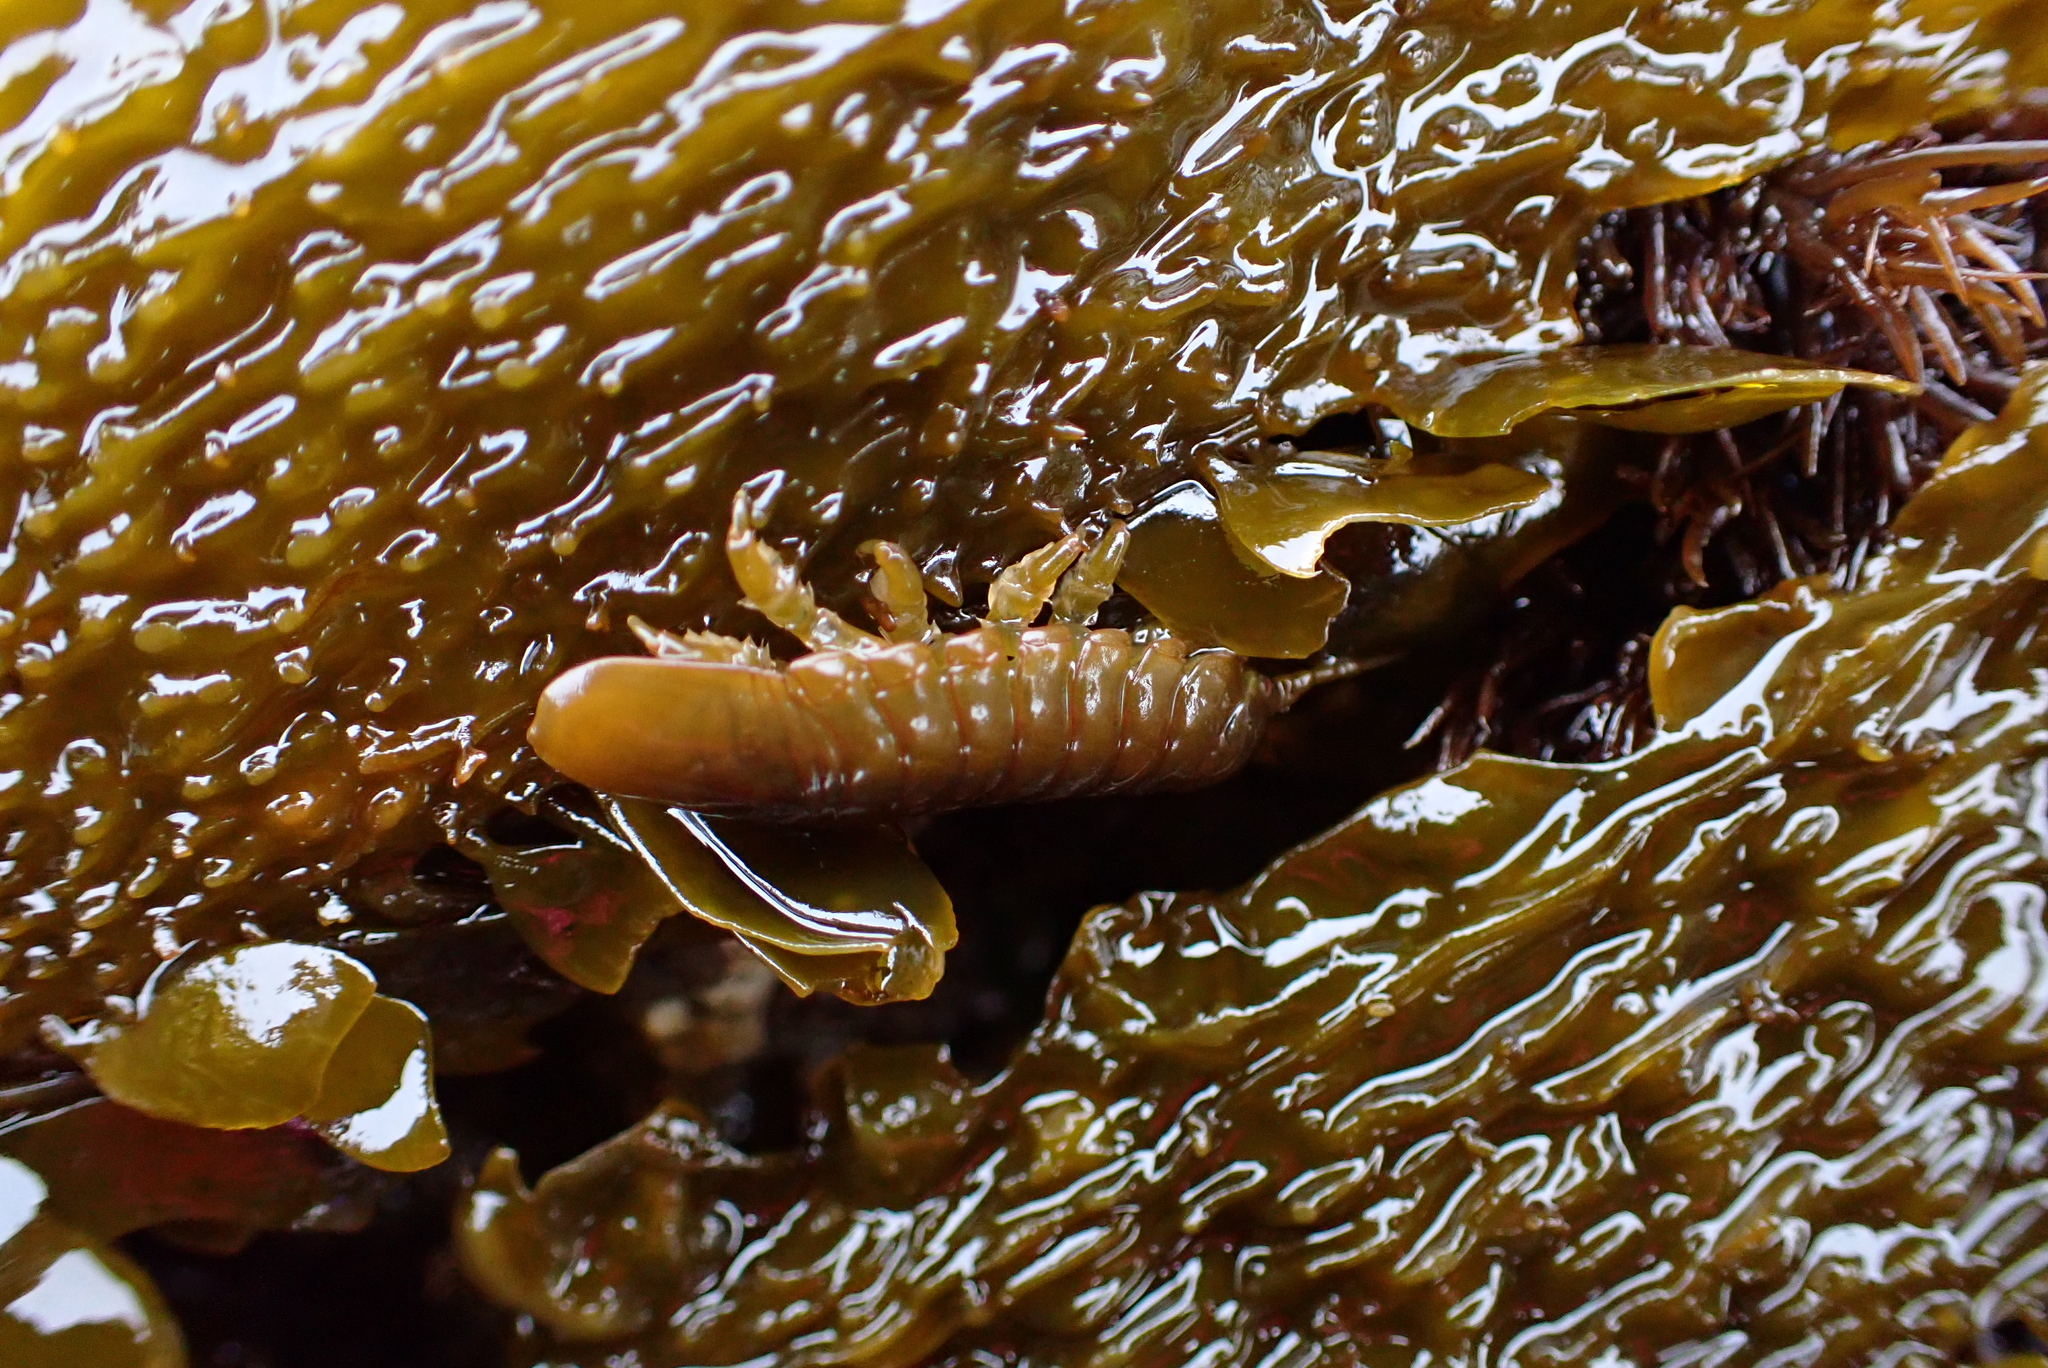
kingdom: Animalia
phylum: Arthropoda
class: Malacostraca
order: Isopoda
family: Idoteidae
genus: Pentidotea
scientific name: Pentidotea wosnesenskii
